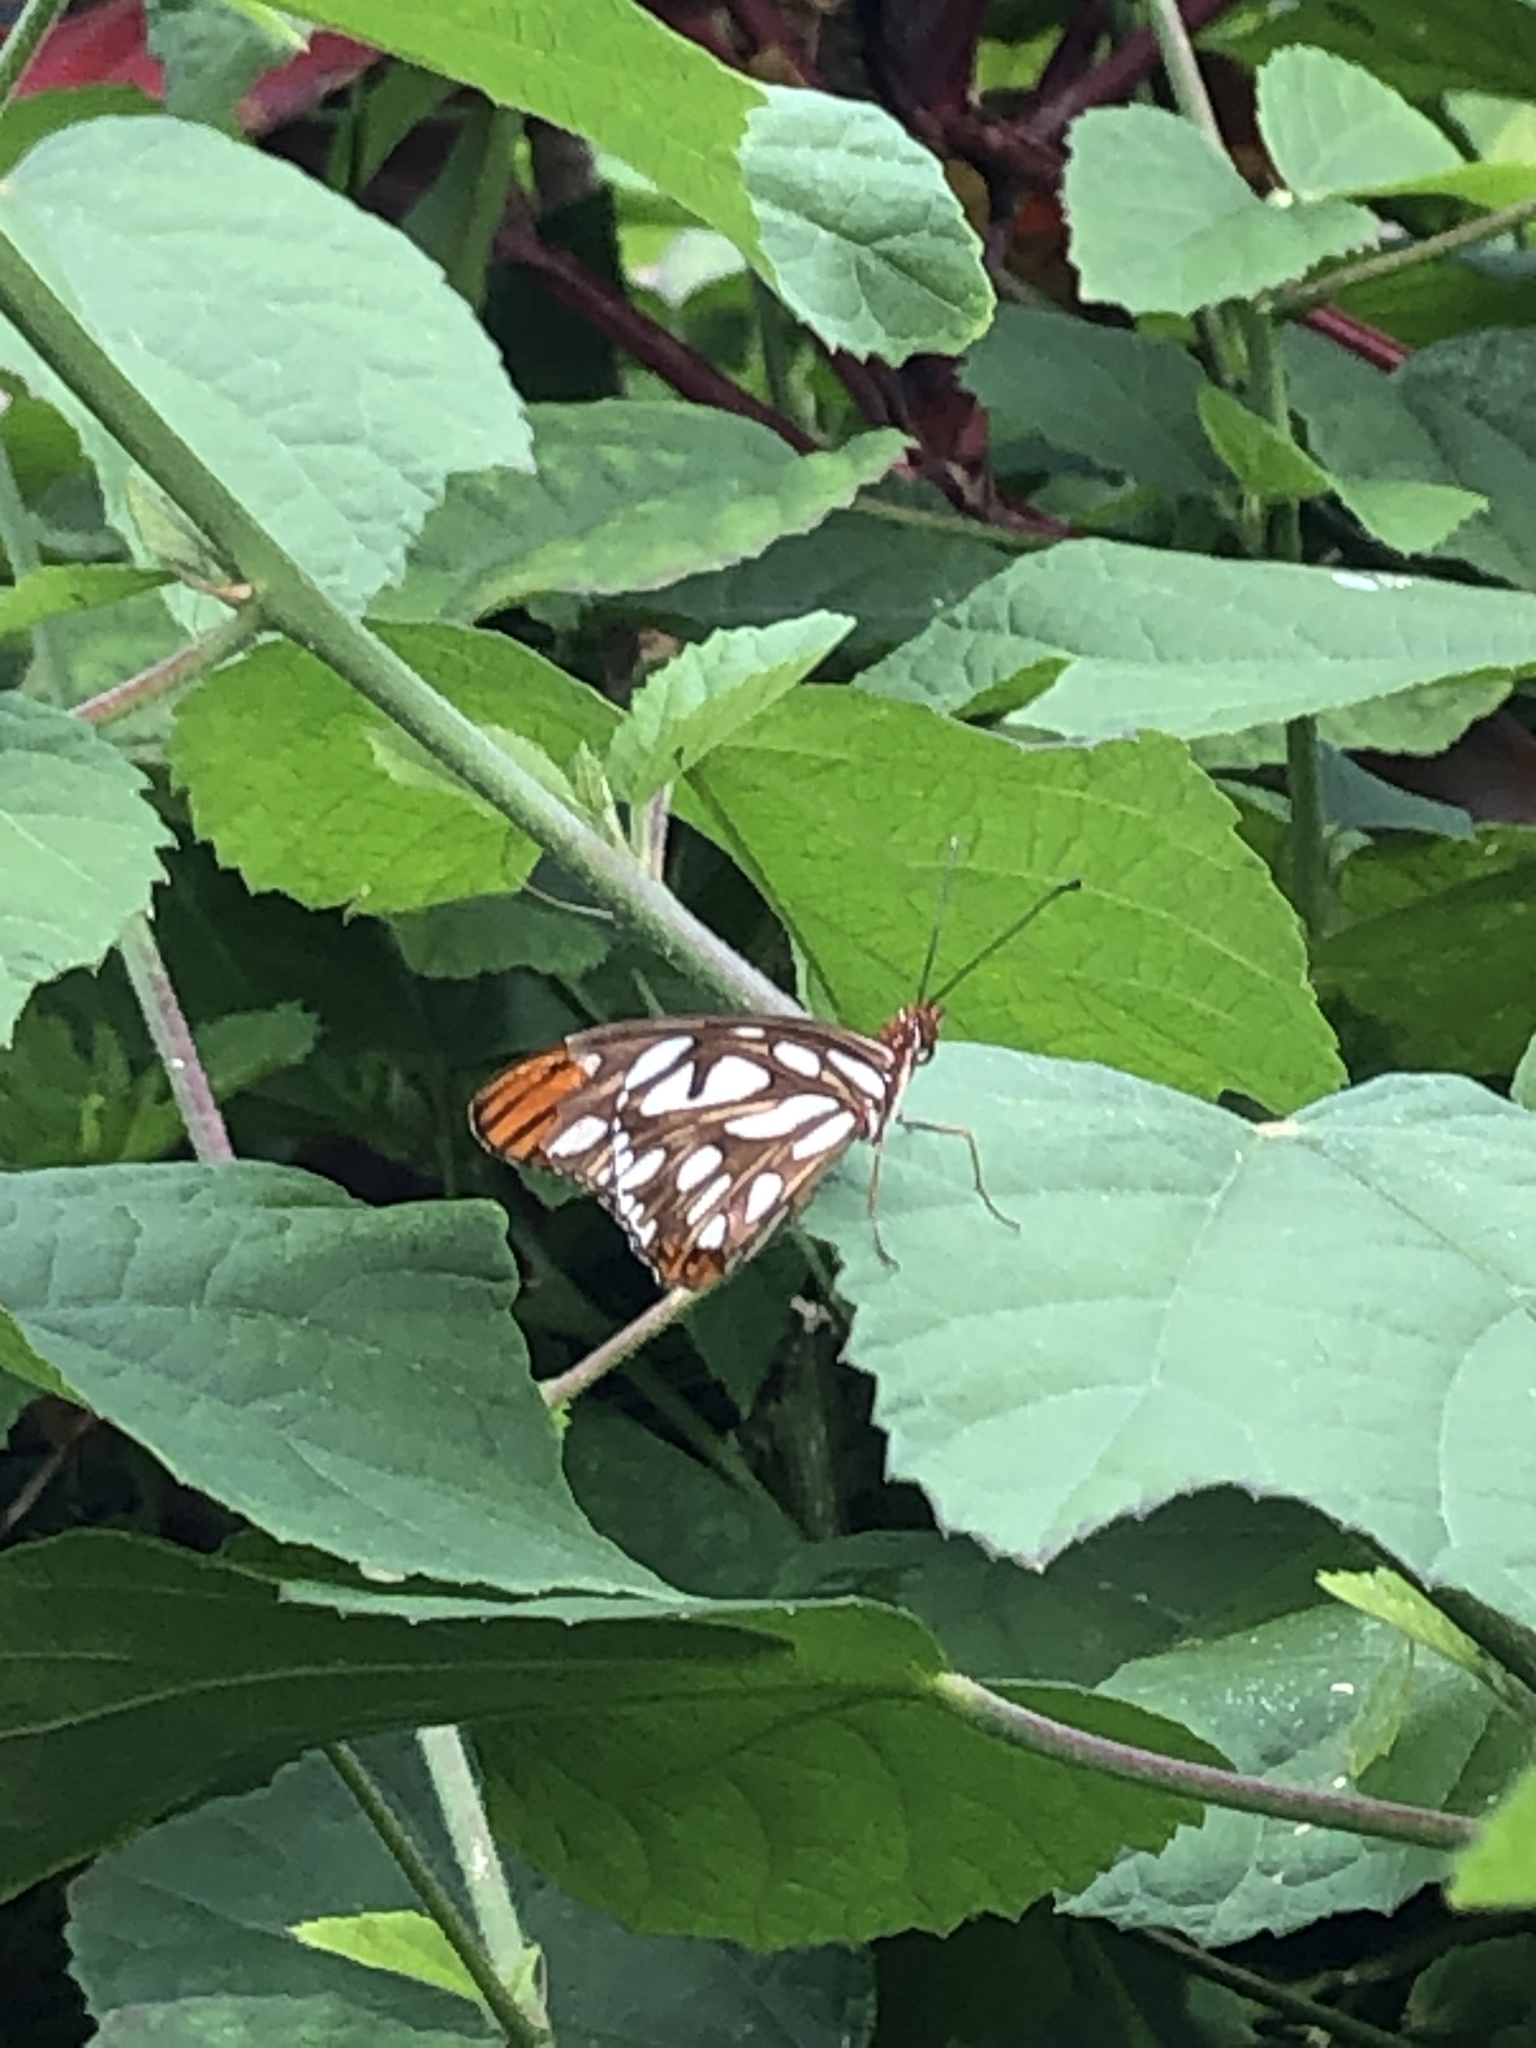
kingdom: Animalia
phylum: Arthropoda
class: Insecta
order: Lepidoptera
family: Nymphalidae
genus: Dione
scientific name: Dione vanillae
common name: Gulf fritillary
